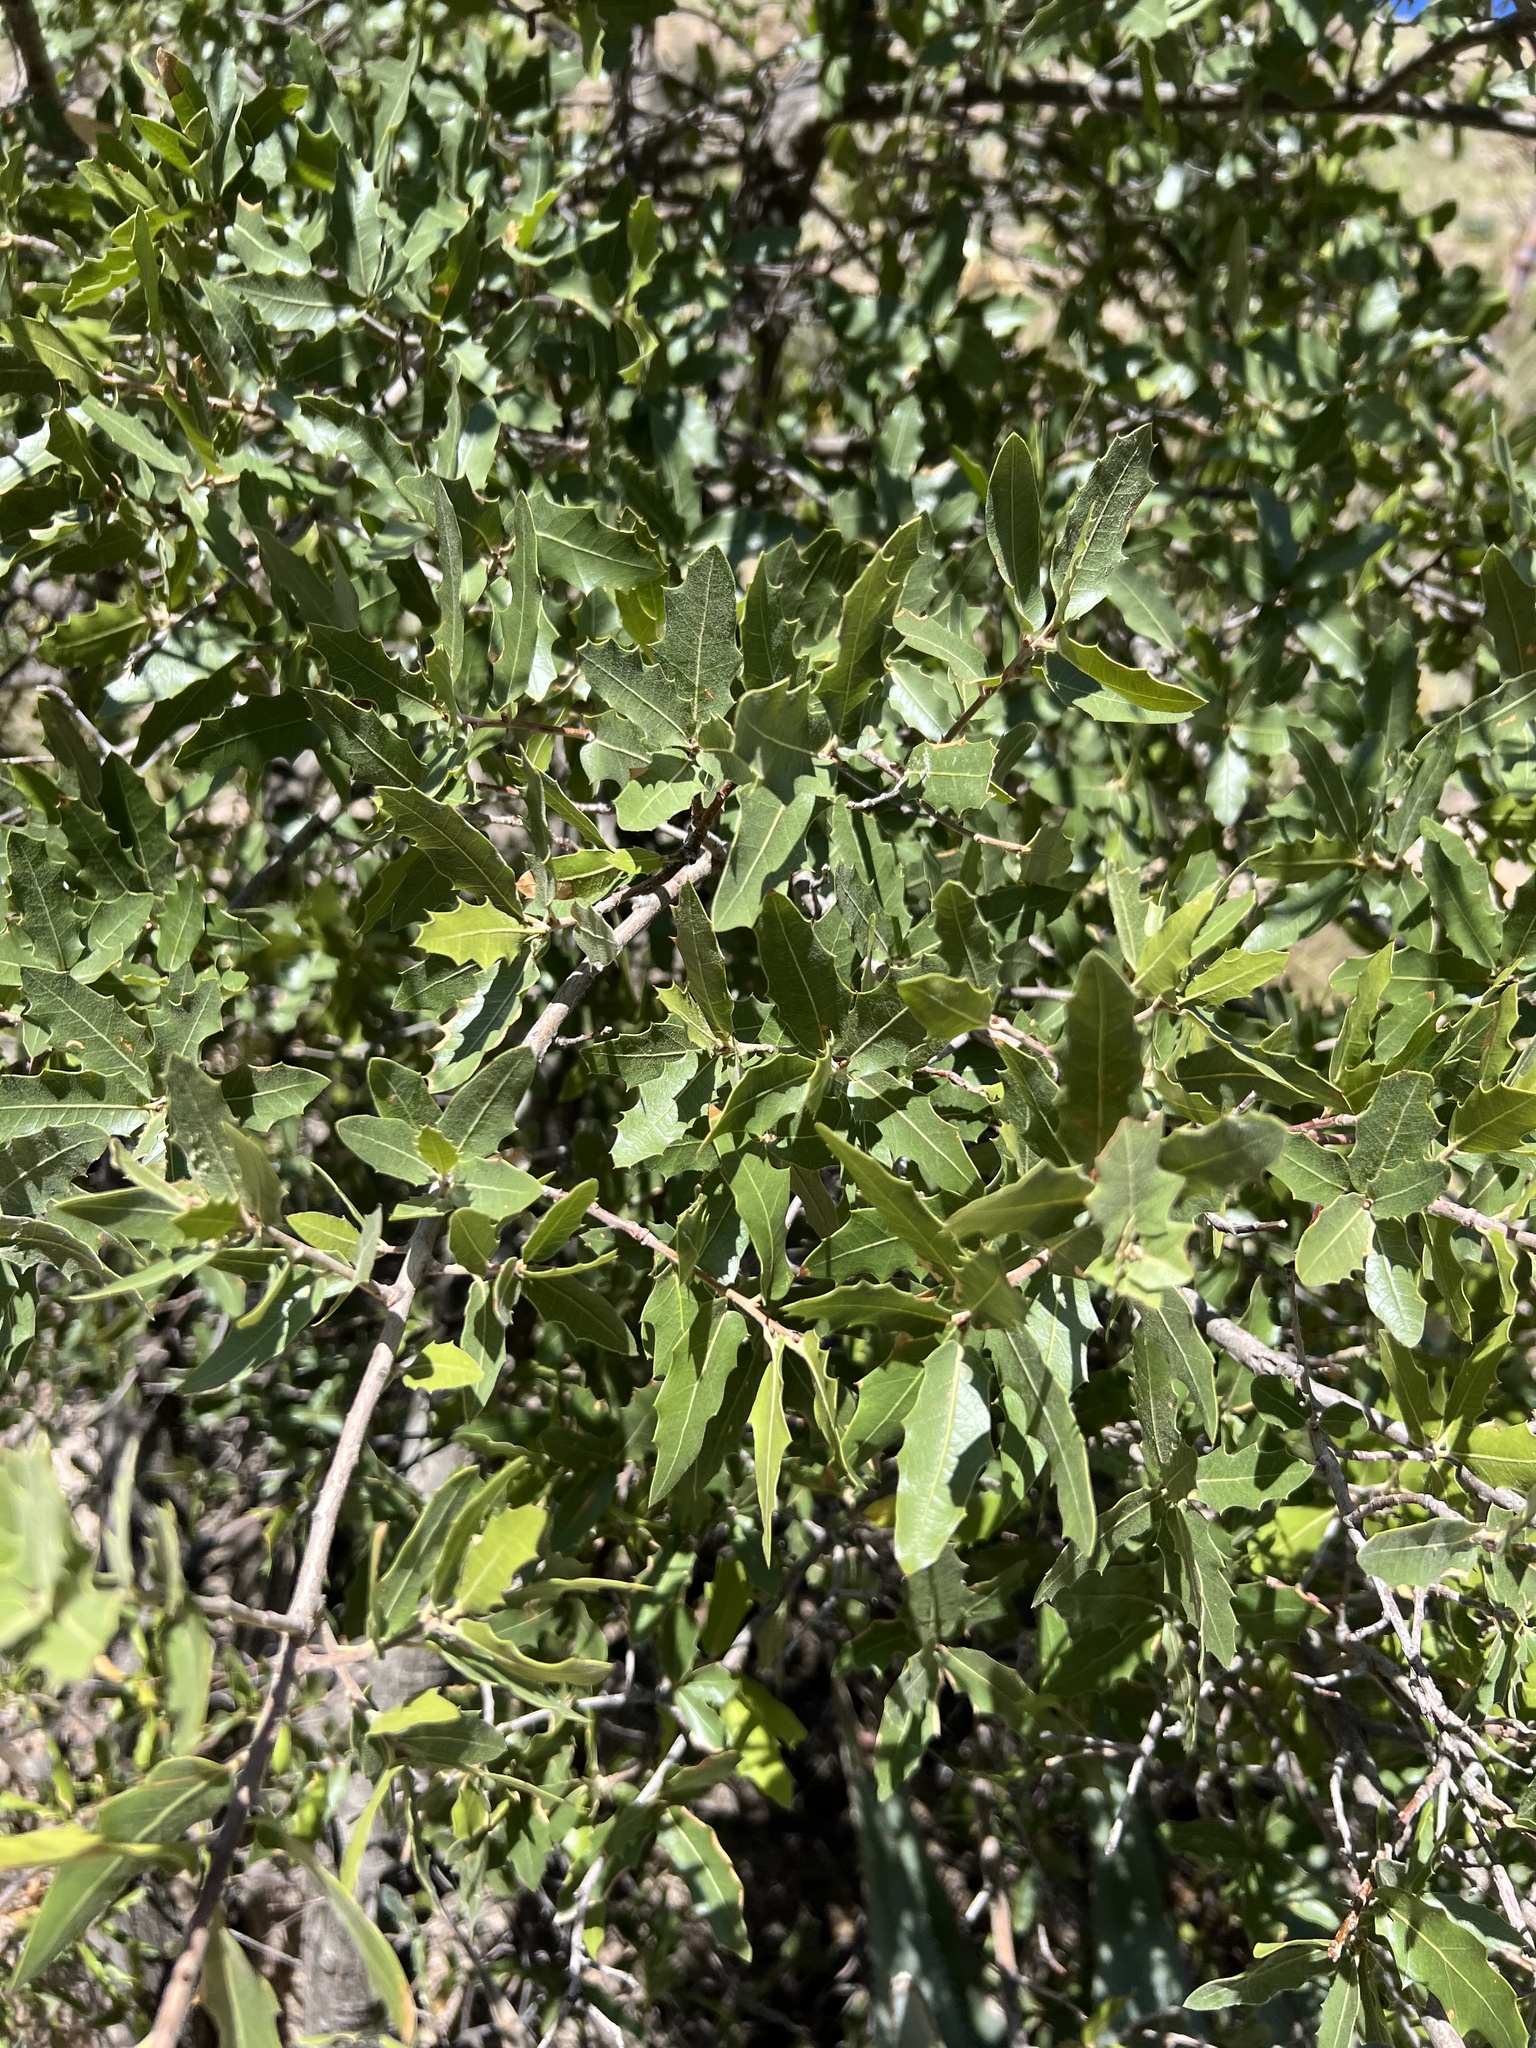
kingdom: Plantae
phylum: Tracheophyta
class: Magnoliopsida
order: Fagales
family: Fagaceae
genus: Quercus
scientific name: Quercus emoryi
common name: Emory oak
